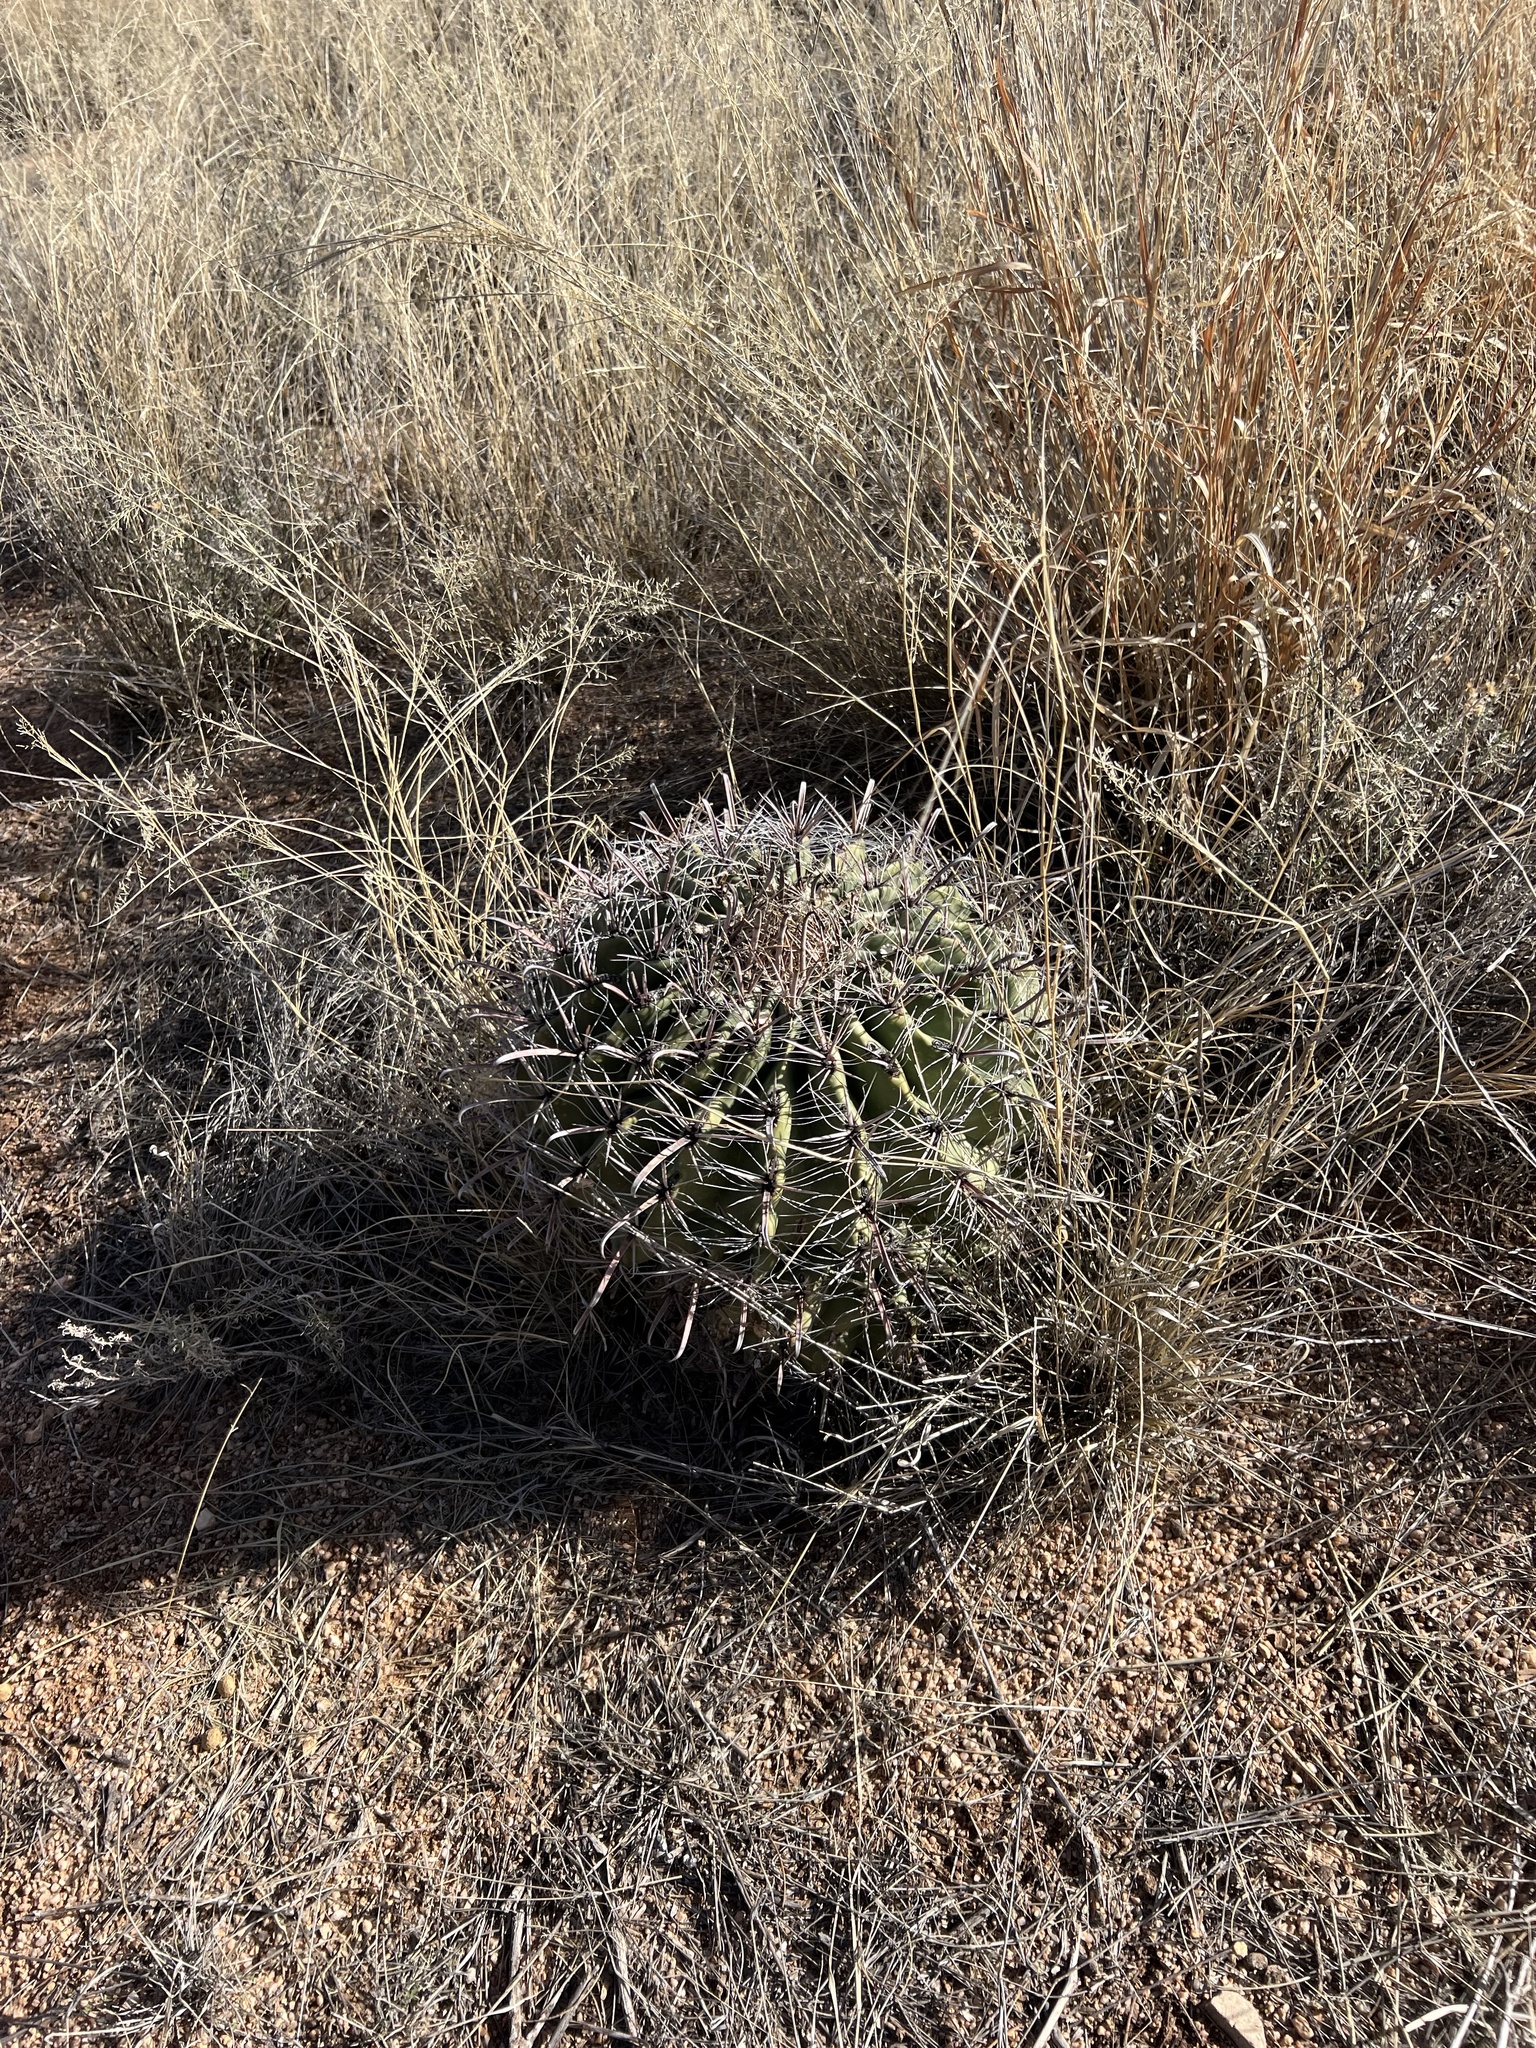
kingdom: Plantae
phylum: Tracheophyta
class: Magnoliopsida
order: Caryophyllales
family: Cactaceae
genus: Ferocactus
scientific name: Ferocactus wislizeni
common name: Candy barrel cactus
